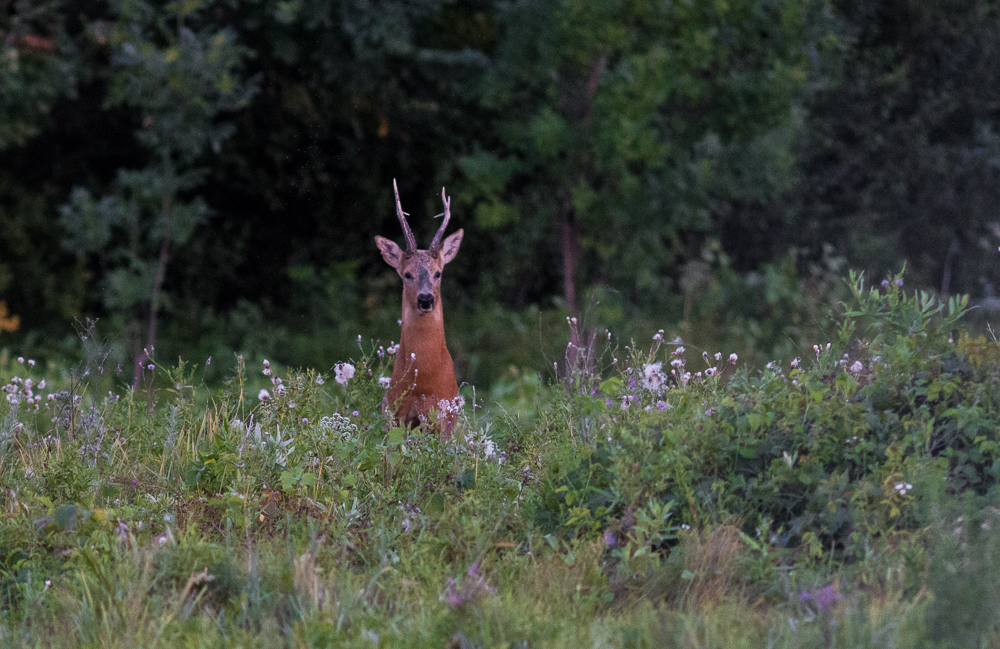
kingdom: Animalia
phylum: Chordata
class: Mammalia
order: Artiodactyla
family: Cervidae
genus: Capreolus
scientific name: Capreolus pygargus
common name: Siberian roe
